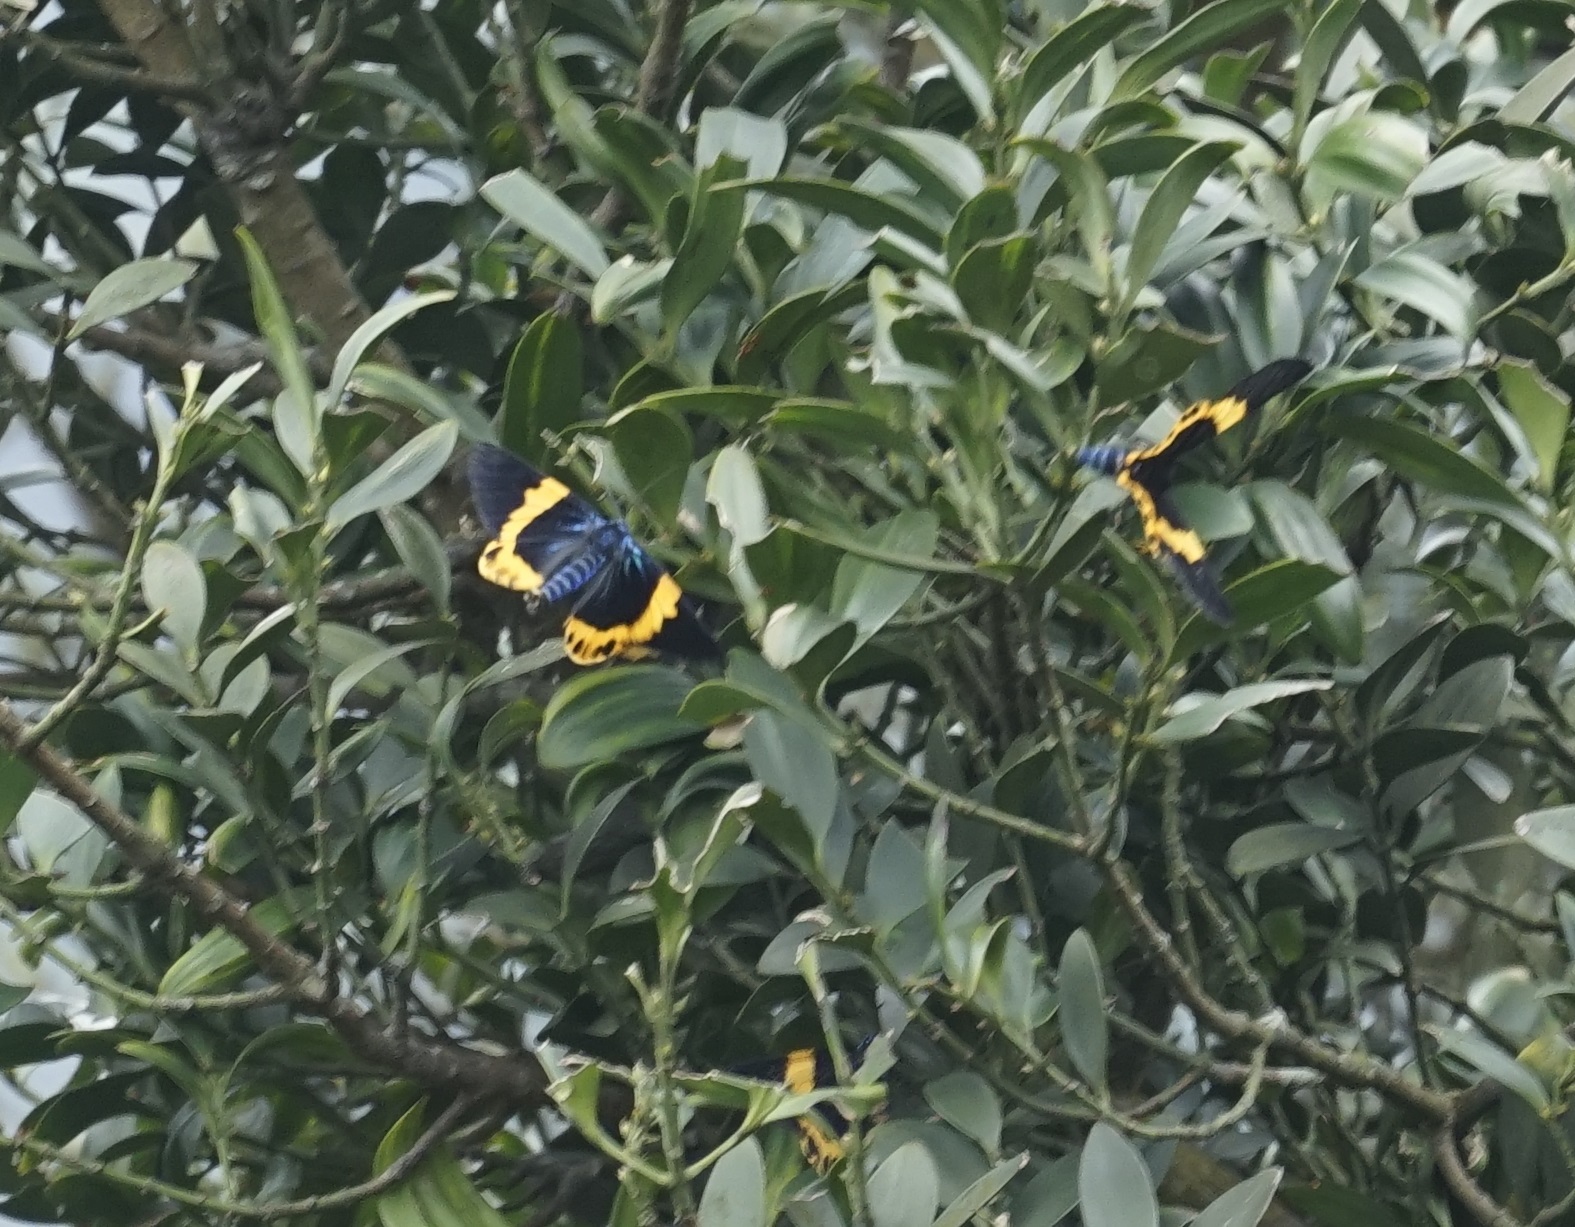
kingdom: Animalia
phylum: Arthropoda
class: Insecta
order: Lepidoptera
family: Geometridae
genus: Milionia
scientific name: Milionia basalis
